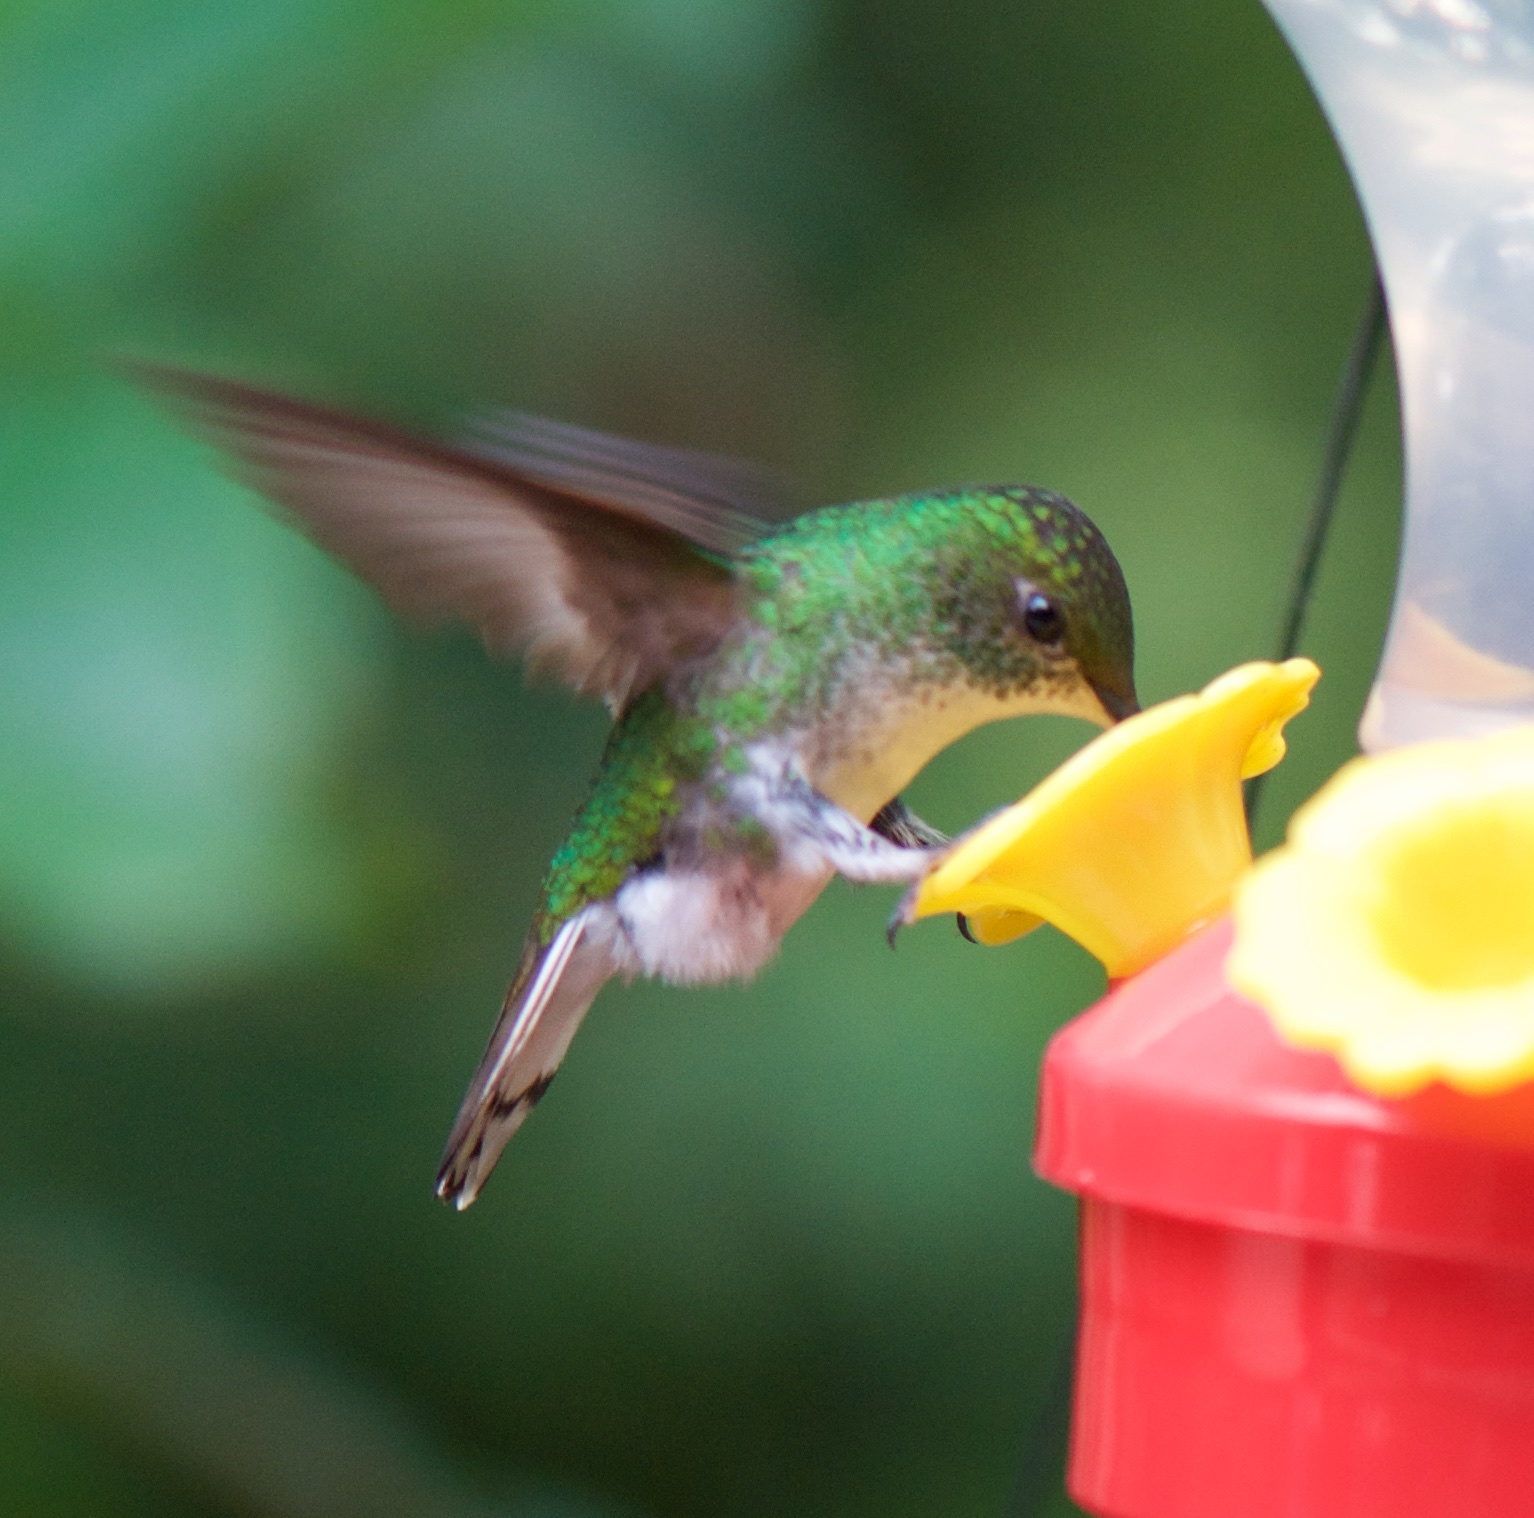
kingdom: Animalia
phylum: Chordata
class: Aves
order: Apodiformes
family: Trochilidae
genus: Microchera
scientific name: Microchera cupreiceps
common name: Coppery-headed emerald
